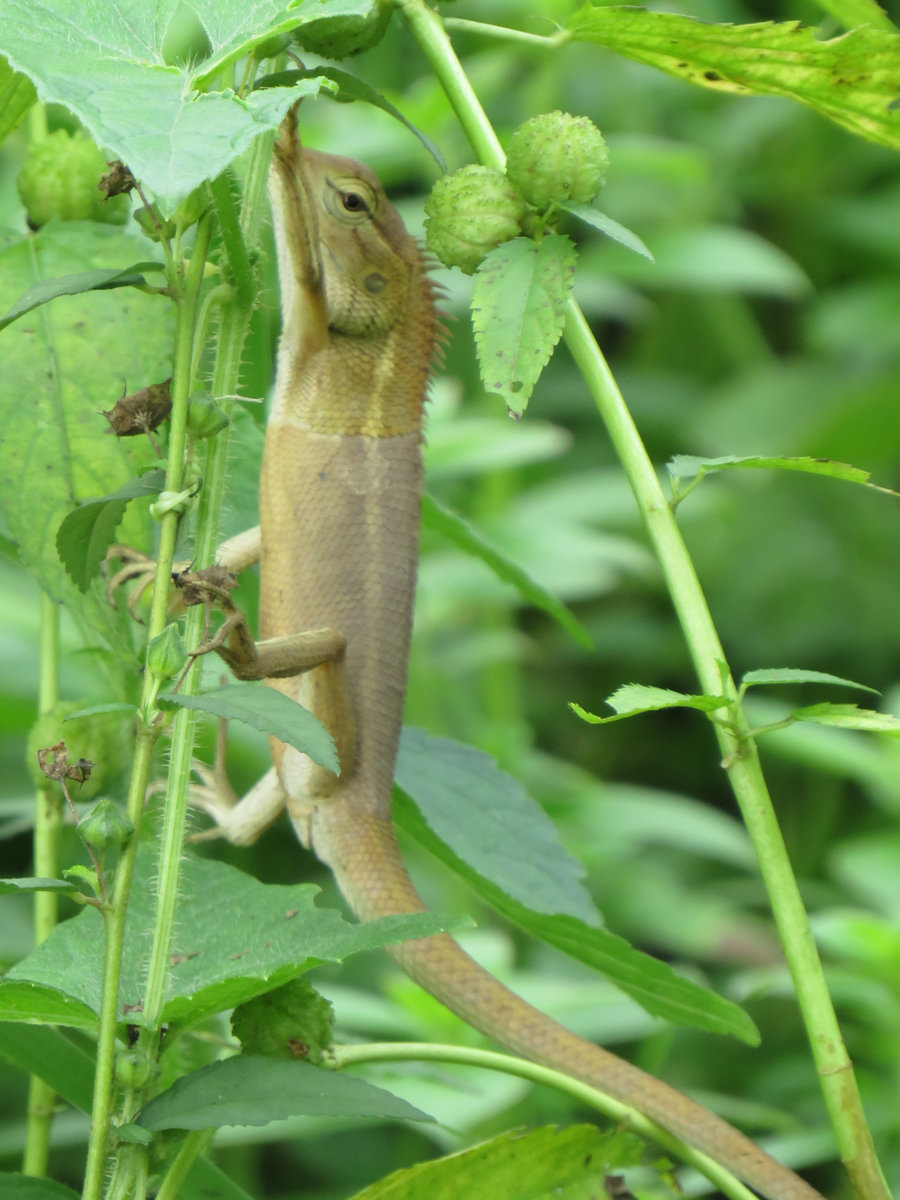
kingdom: Animalia
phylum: Chordata
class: Squamata
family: Agamidae
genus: Calotes
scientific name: Calotes versicolor
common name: Oriental garden lizard
